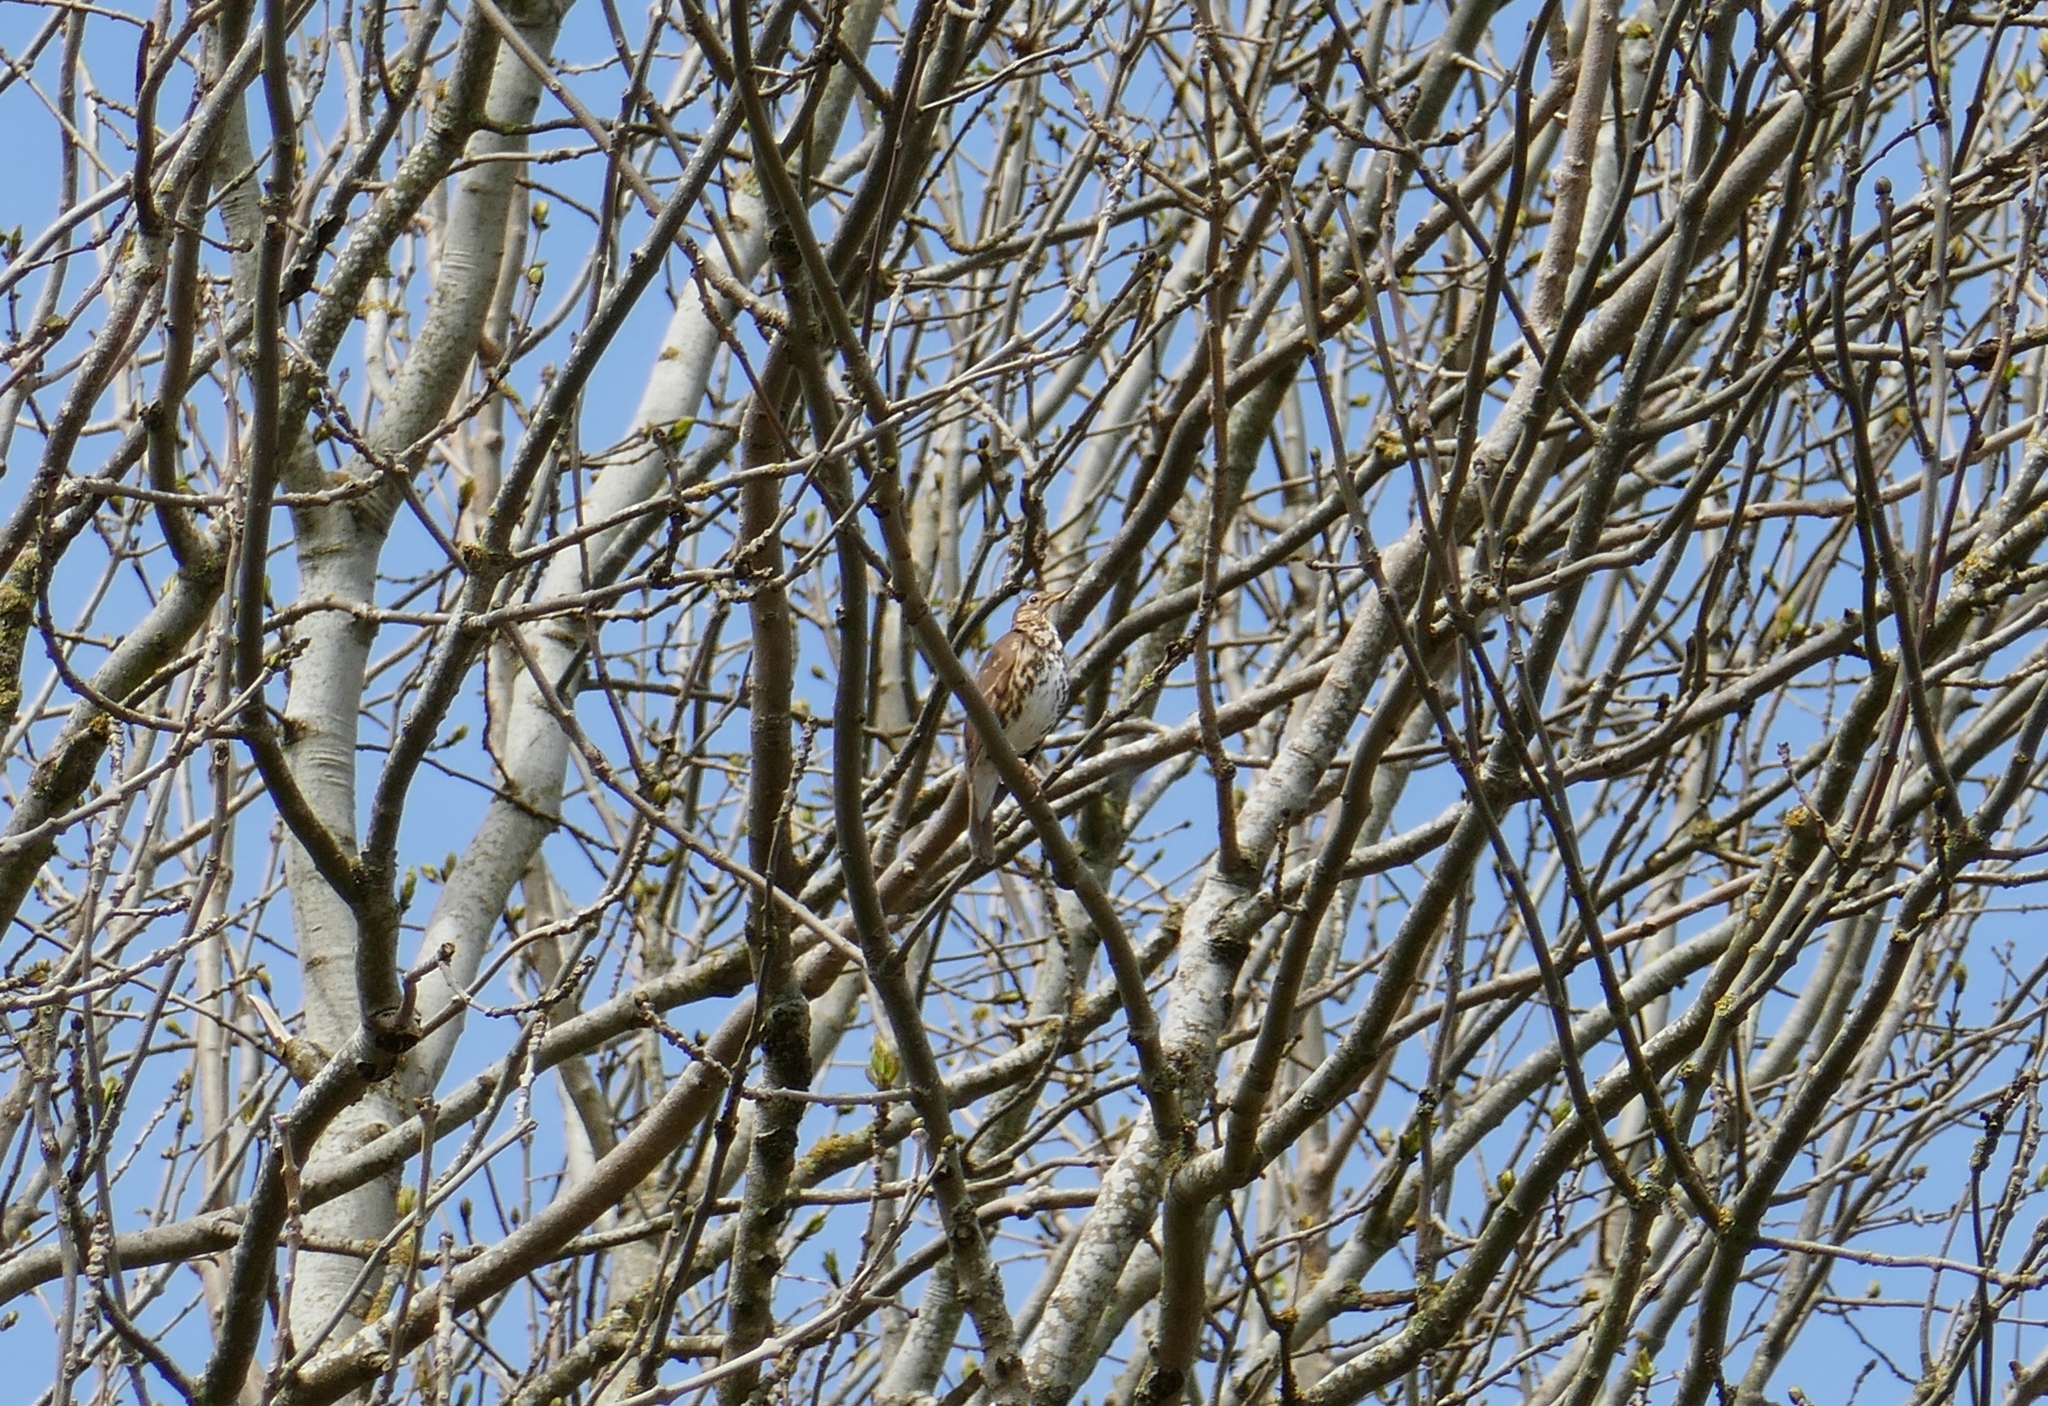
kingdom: Animalia
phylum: Chordata
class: Aves
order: Passeriformes
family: Turdidae
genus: Turdus
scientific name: Turdus philomelos
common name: Song thrush
